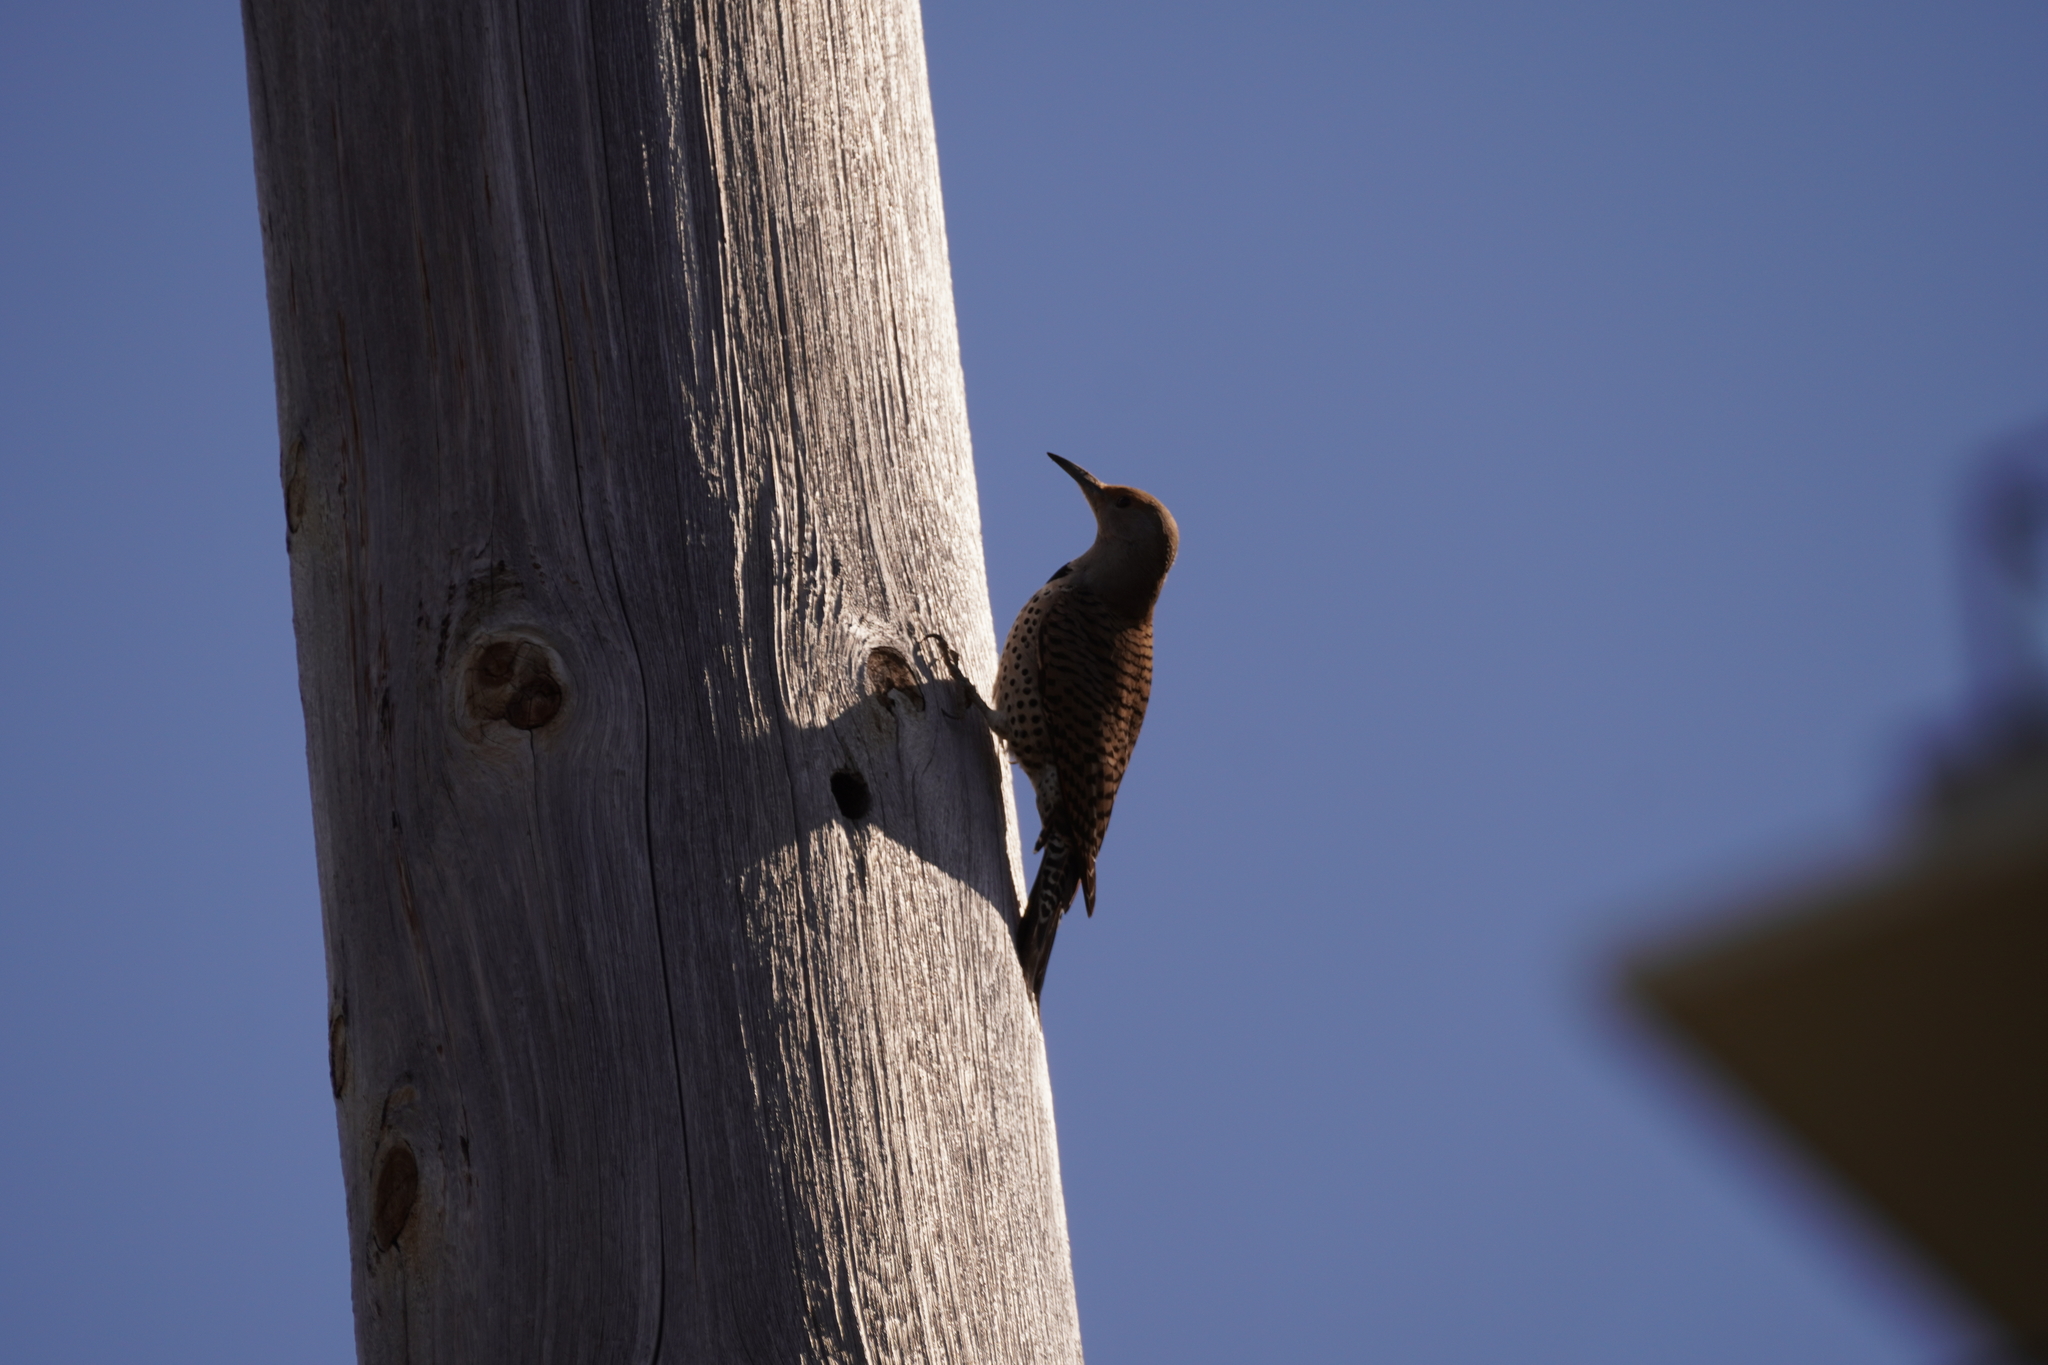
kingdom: Animalia
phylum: Chordata
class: Aves
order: Piciformes
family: Picidae
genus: Colaptes
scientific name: Colaptes auratus
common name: Northern flicker
